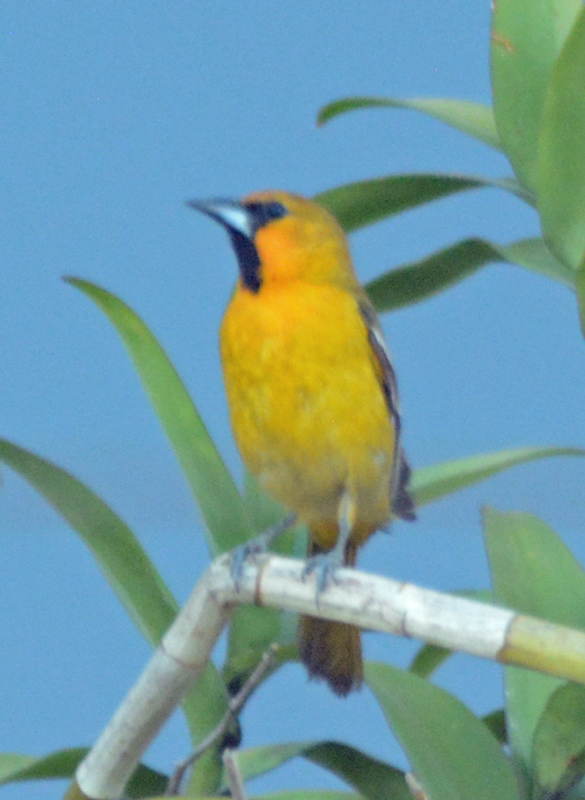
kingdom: Animalia
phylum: Chordata
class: Aves
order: Passeriformes
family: Icteridae
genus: Icterus
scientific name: Icterus pustulatus
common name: Streak-backed oriole
